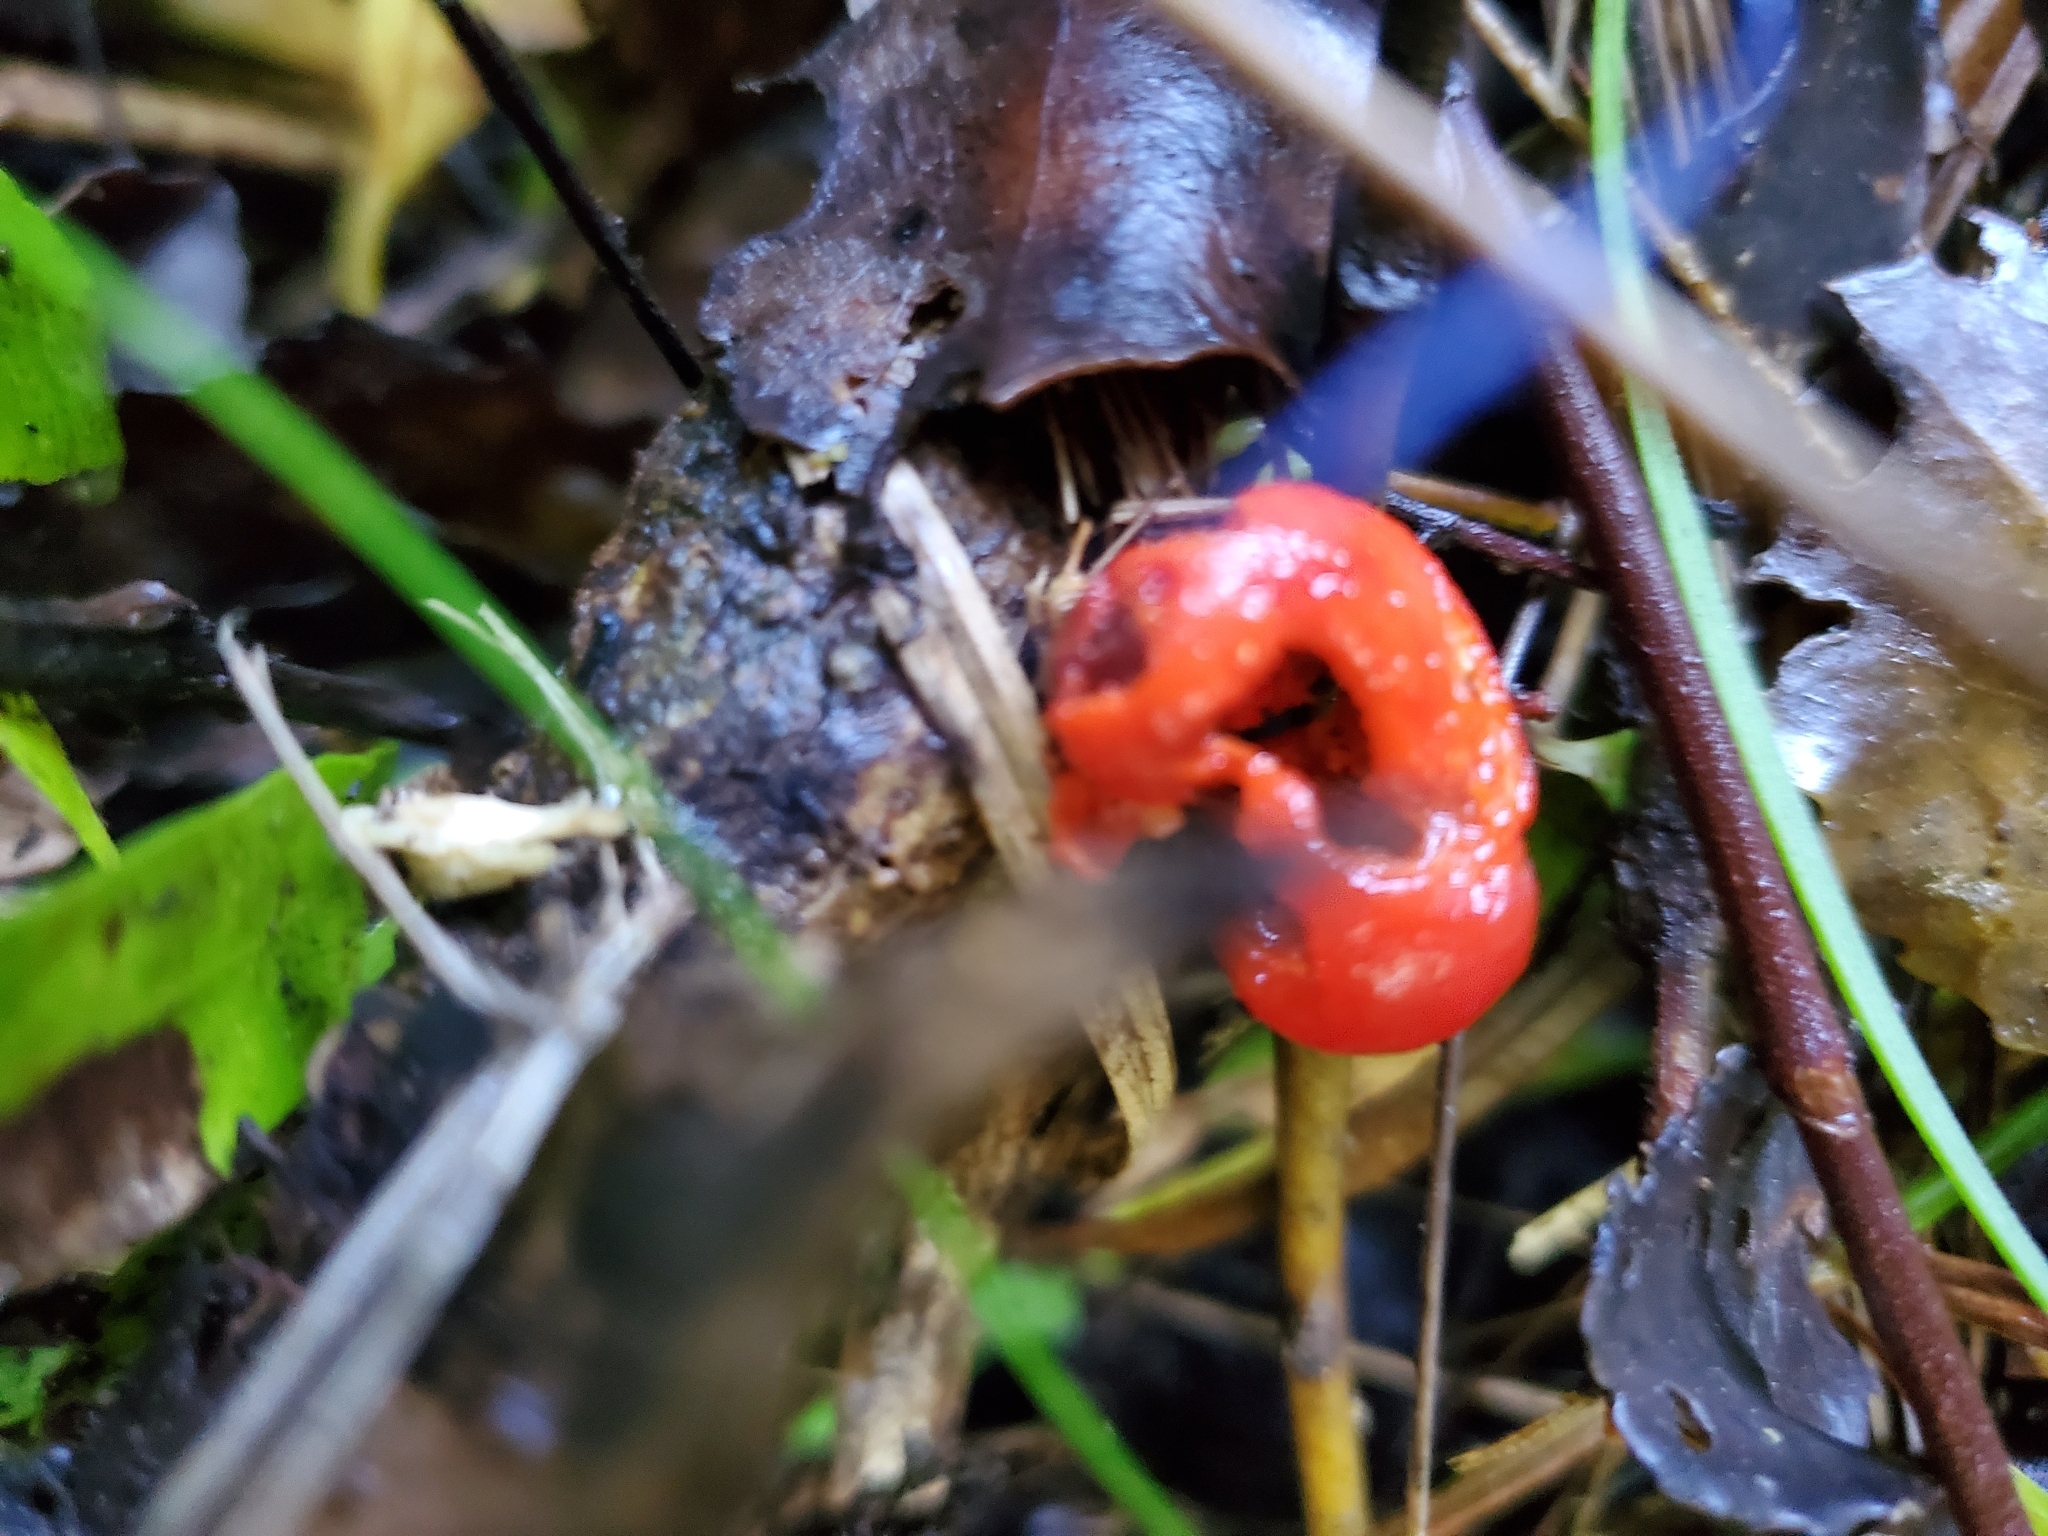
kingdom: Fungi
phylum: Ascomycota
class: Pezizomycetes
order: Pezizales
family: Pyronemataceae
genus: Paurocotylis
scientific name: Paurocotylis pila
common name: Scarlet berry truffle
